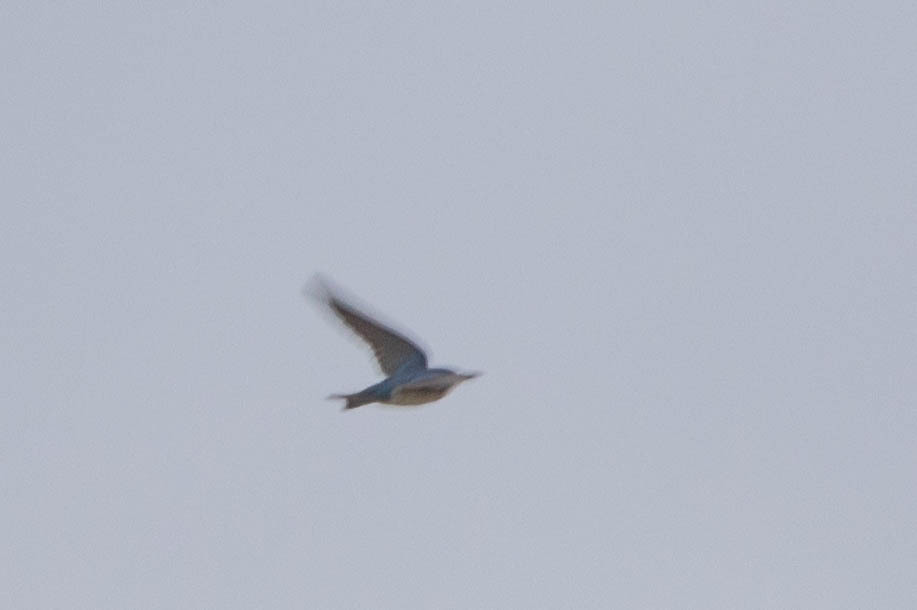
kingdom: Animalia
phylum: Chordata
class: Aves
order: Passeriformes
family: Hirundinidae
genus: Tachycineta
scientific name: Tachycineta bicolor
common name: Tree swallow
